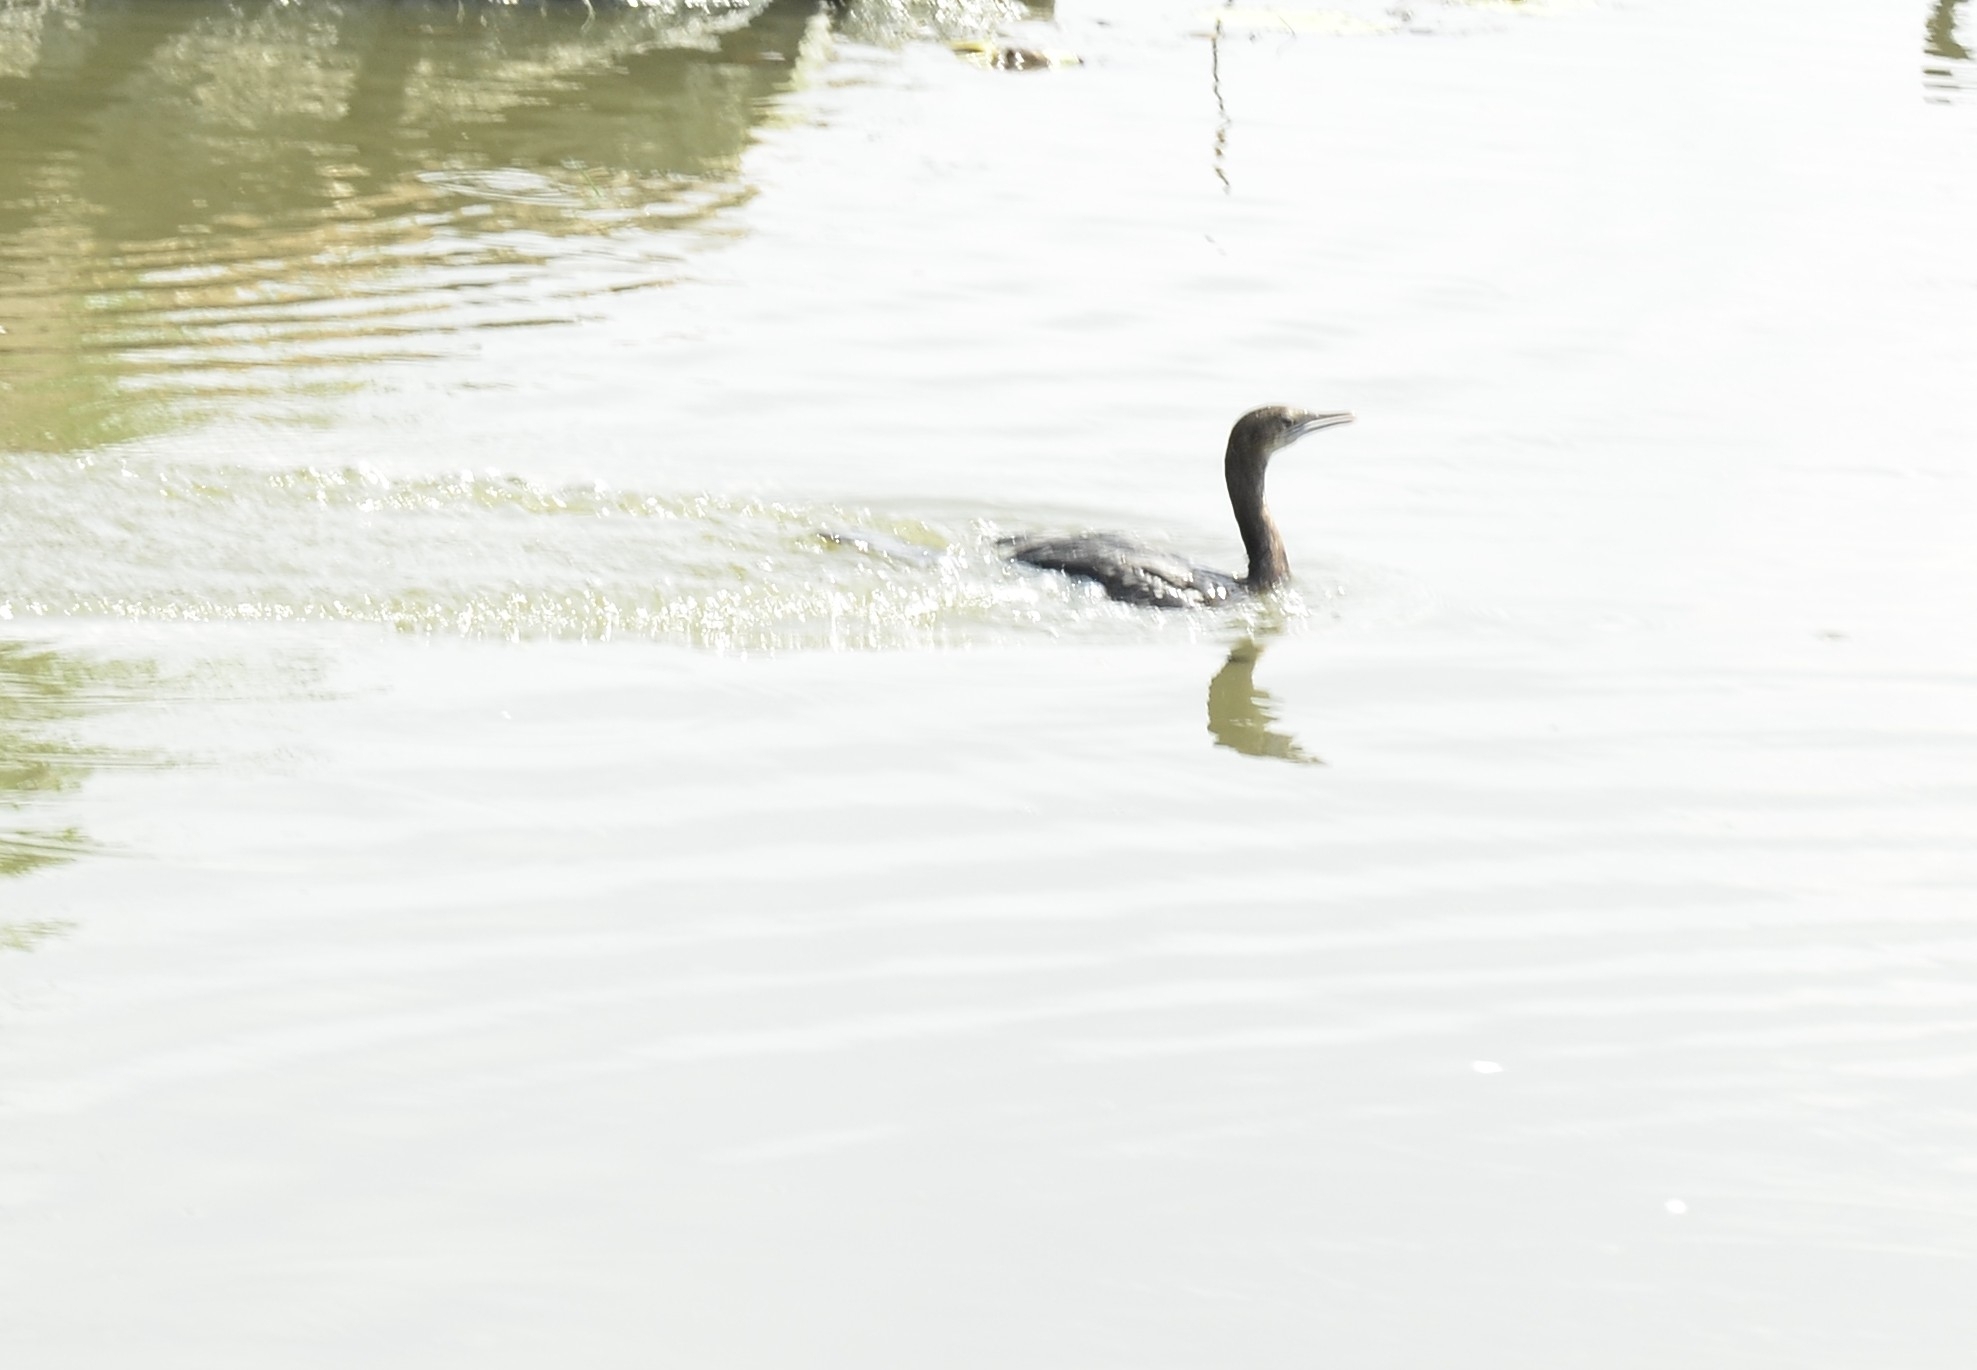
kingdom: Animalia
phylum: Chordata
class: Aves
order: Suliformes
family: Phalacrocoracidae
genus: Microcarbo
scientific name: Microcarbo niger
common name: Little cormorant
